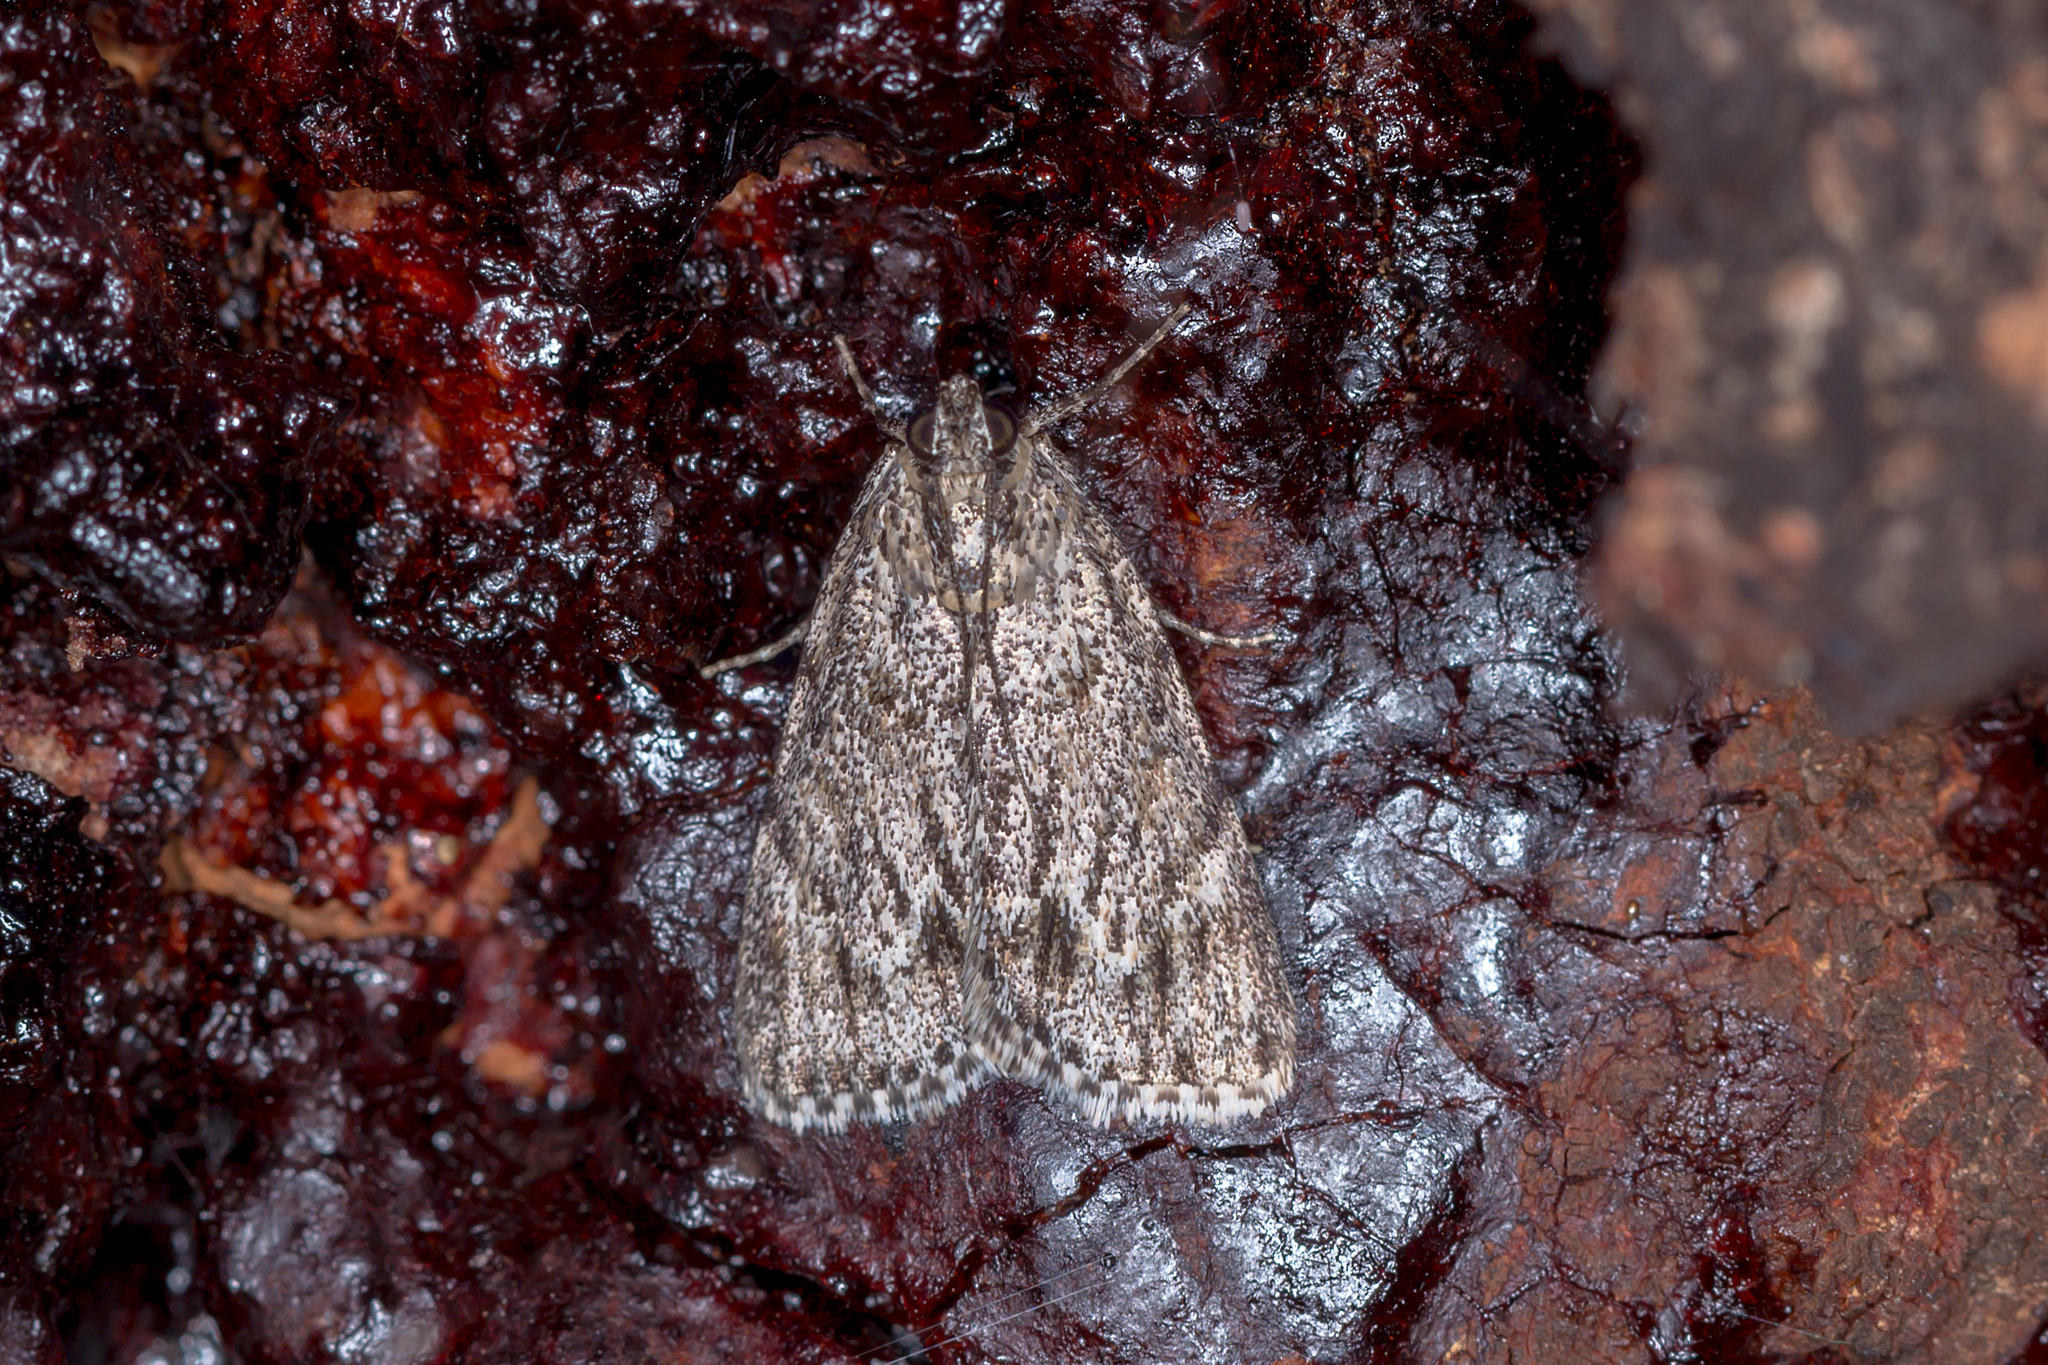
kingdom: Animalia
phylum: Arthropoda
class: Insecta
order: Lepidoptera
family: Pyralidae
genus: Spectrotrota
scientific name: Spectrotrota fimbrialis
